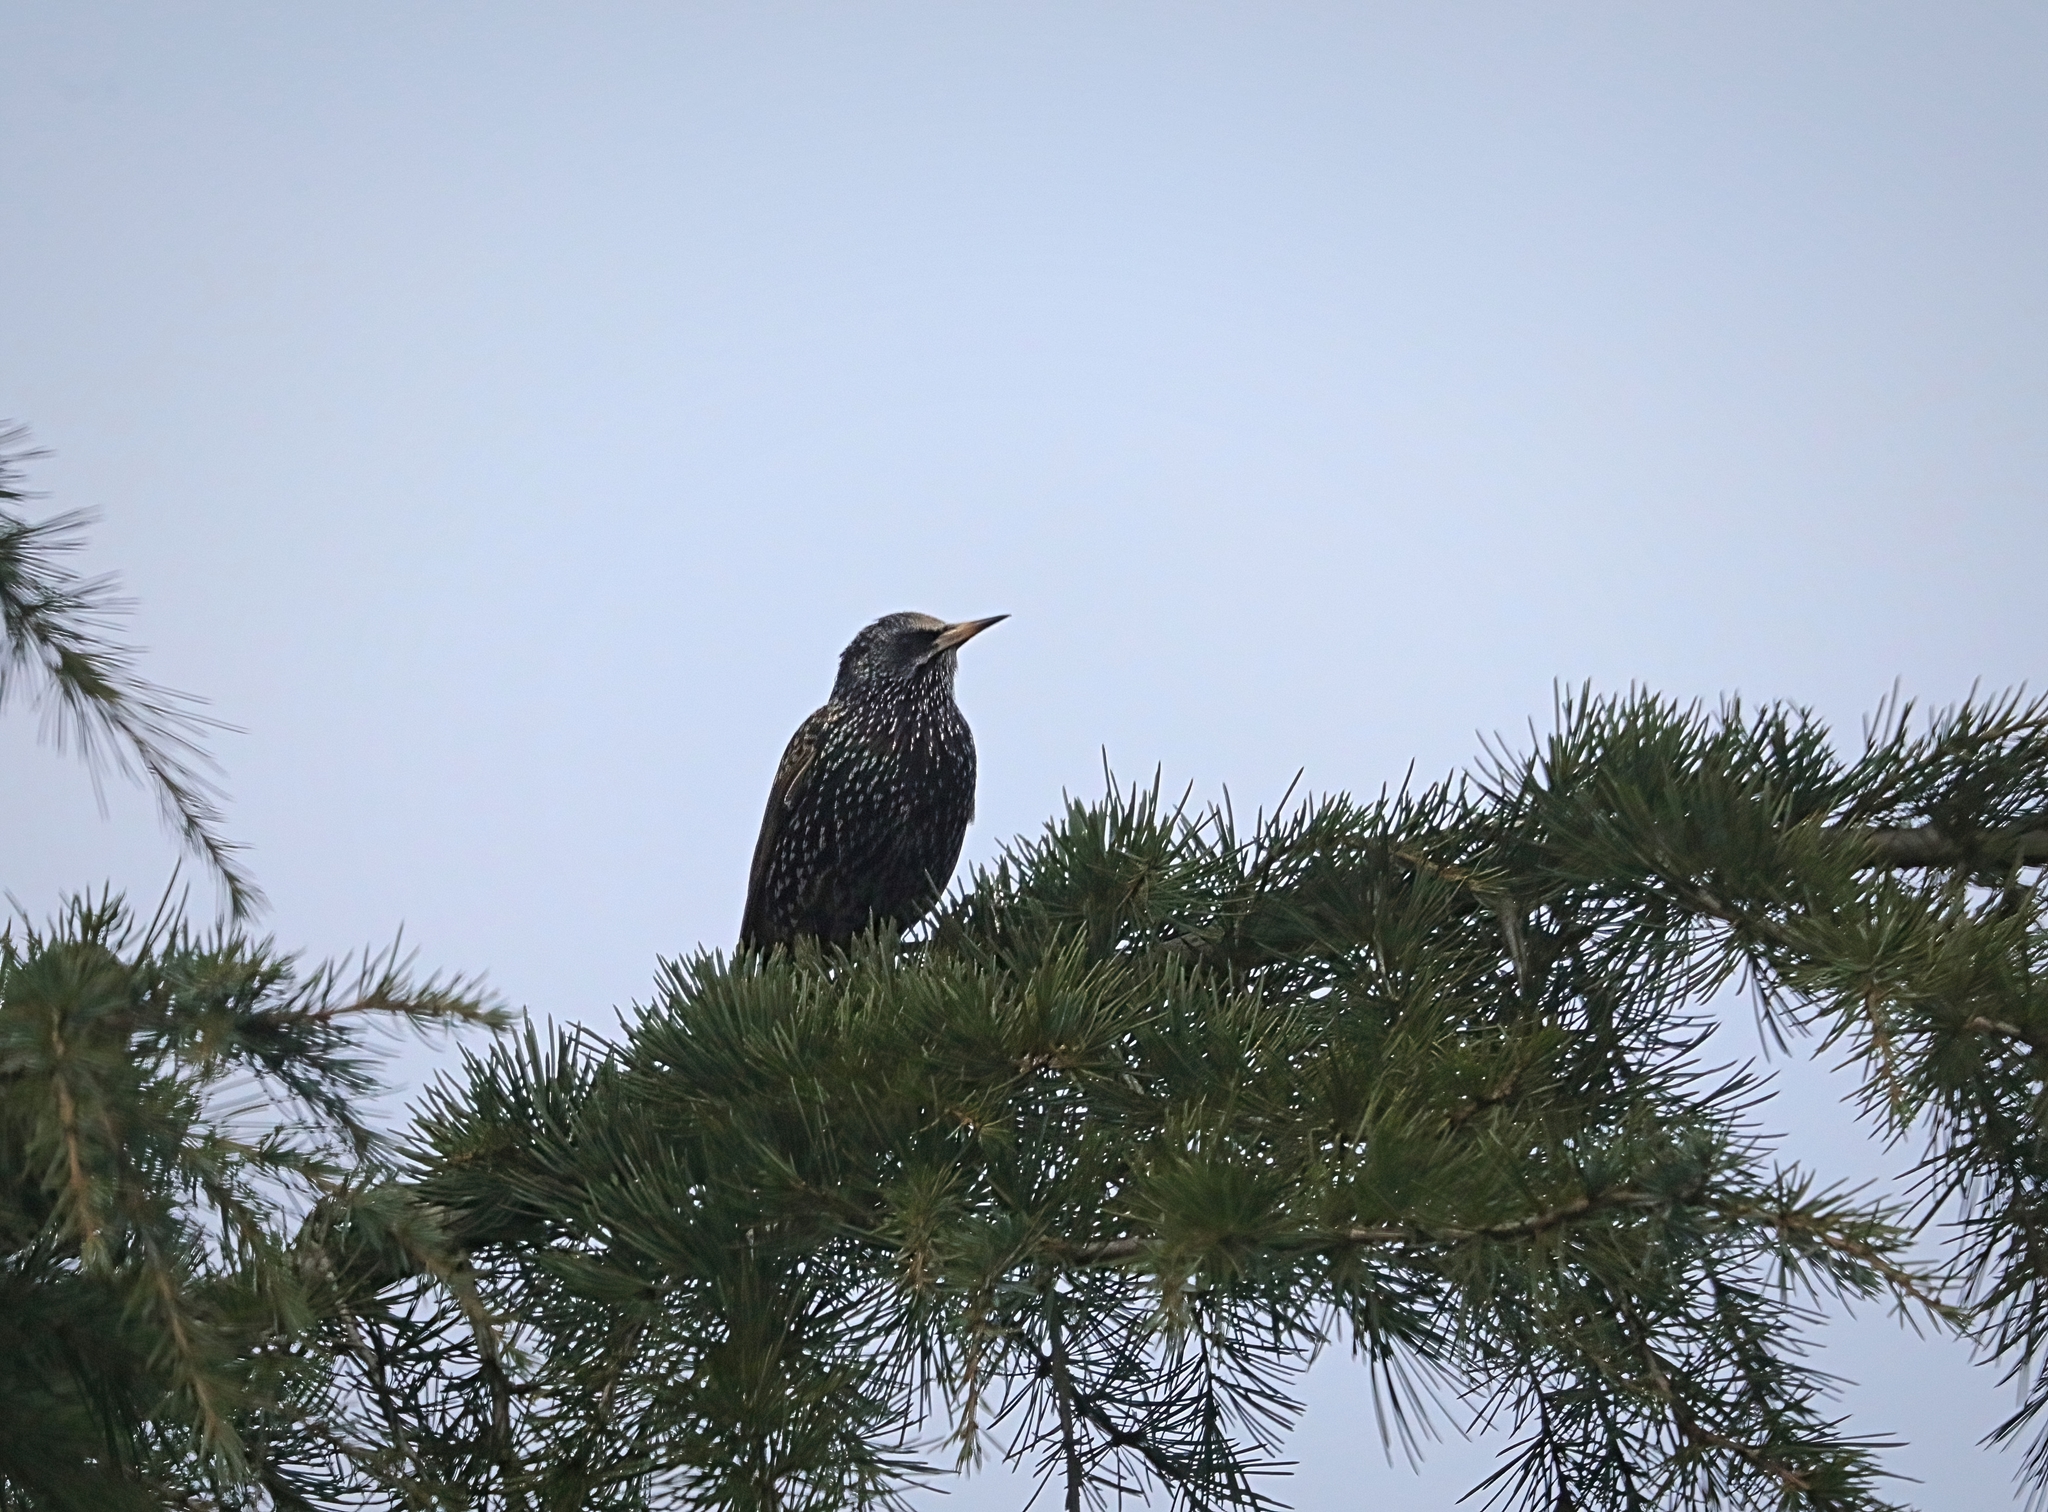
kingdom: Animalia
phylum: Chordata
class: Aves
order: Passeriformes
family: Sturnidae
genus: Sturnus
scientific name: Sturnus vulgaris
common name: Common starling
